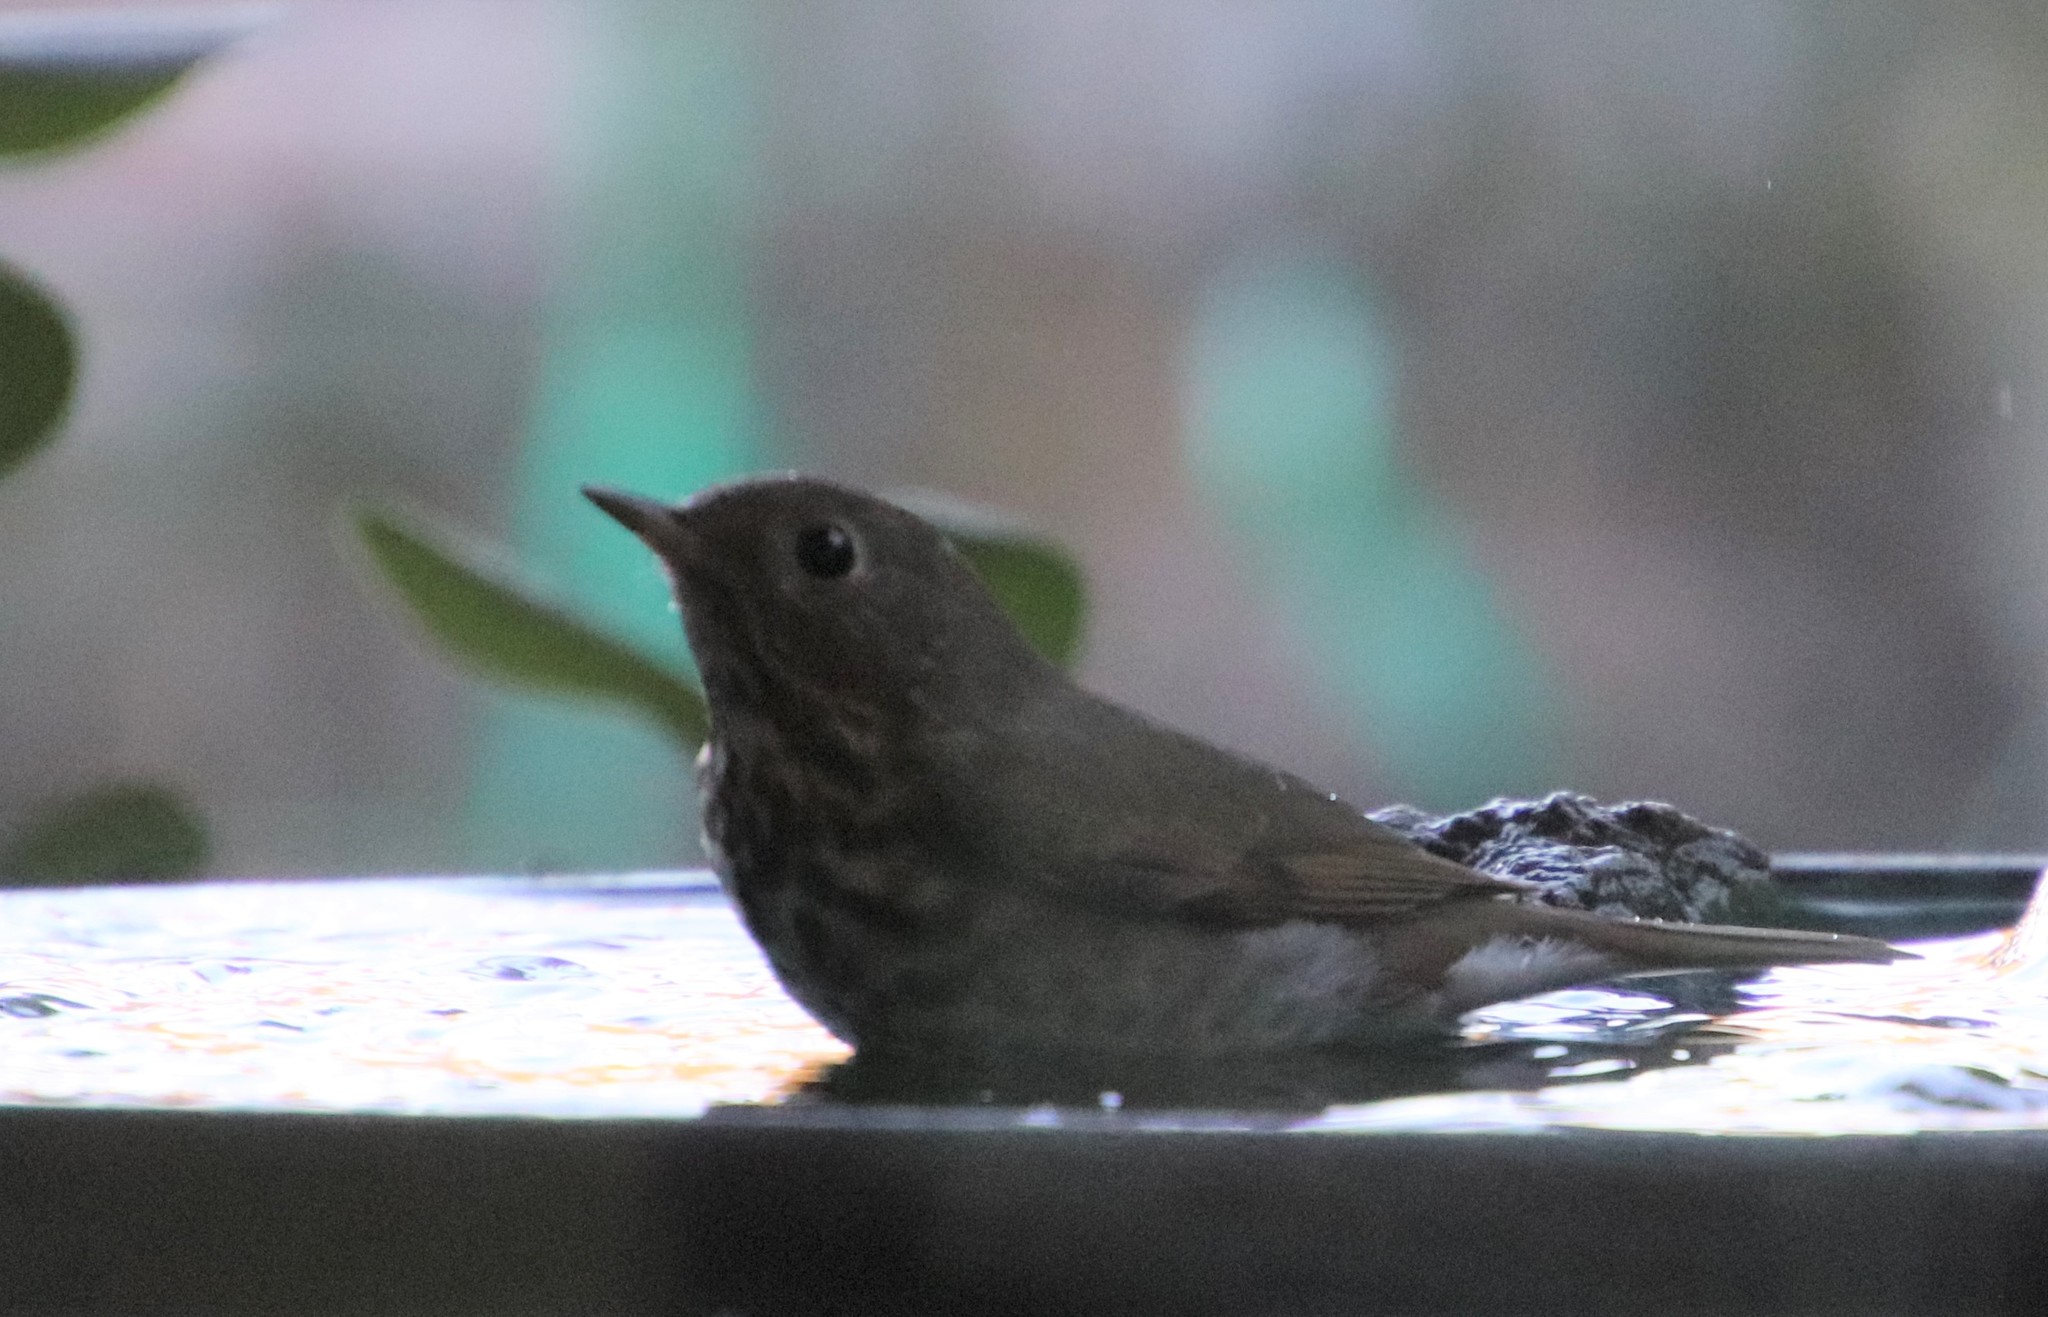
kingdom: Animalia
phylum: Chordata
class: Aves
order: Passeriformes
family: Turdidae
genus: Catharus
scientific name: Catharus guttatus
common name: Hermit thrush
